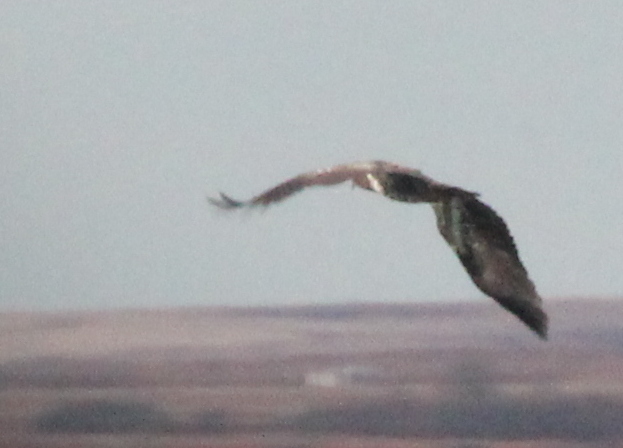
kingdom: Animalia
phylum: Chordata
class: Aves
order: Accipitriformes
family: Accipitridae
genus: Haliaeetus
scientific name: Haliaeetus leucocephalus
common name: Bald eagle
